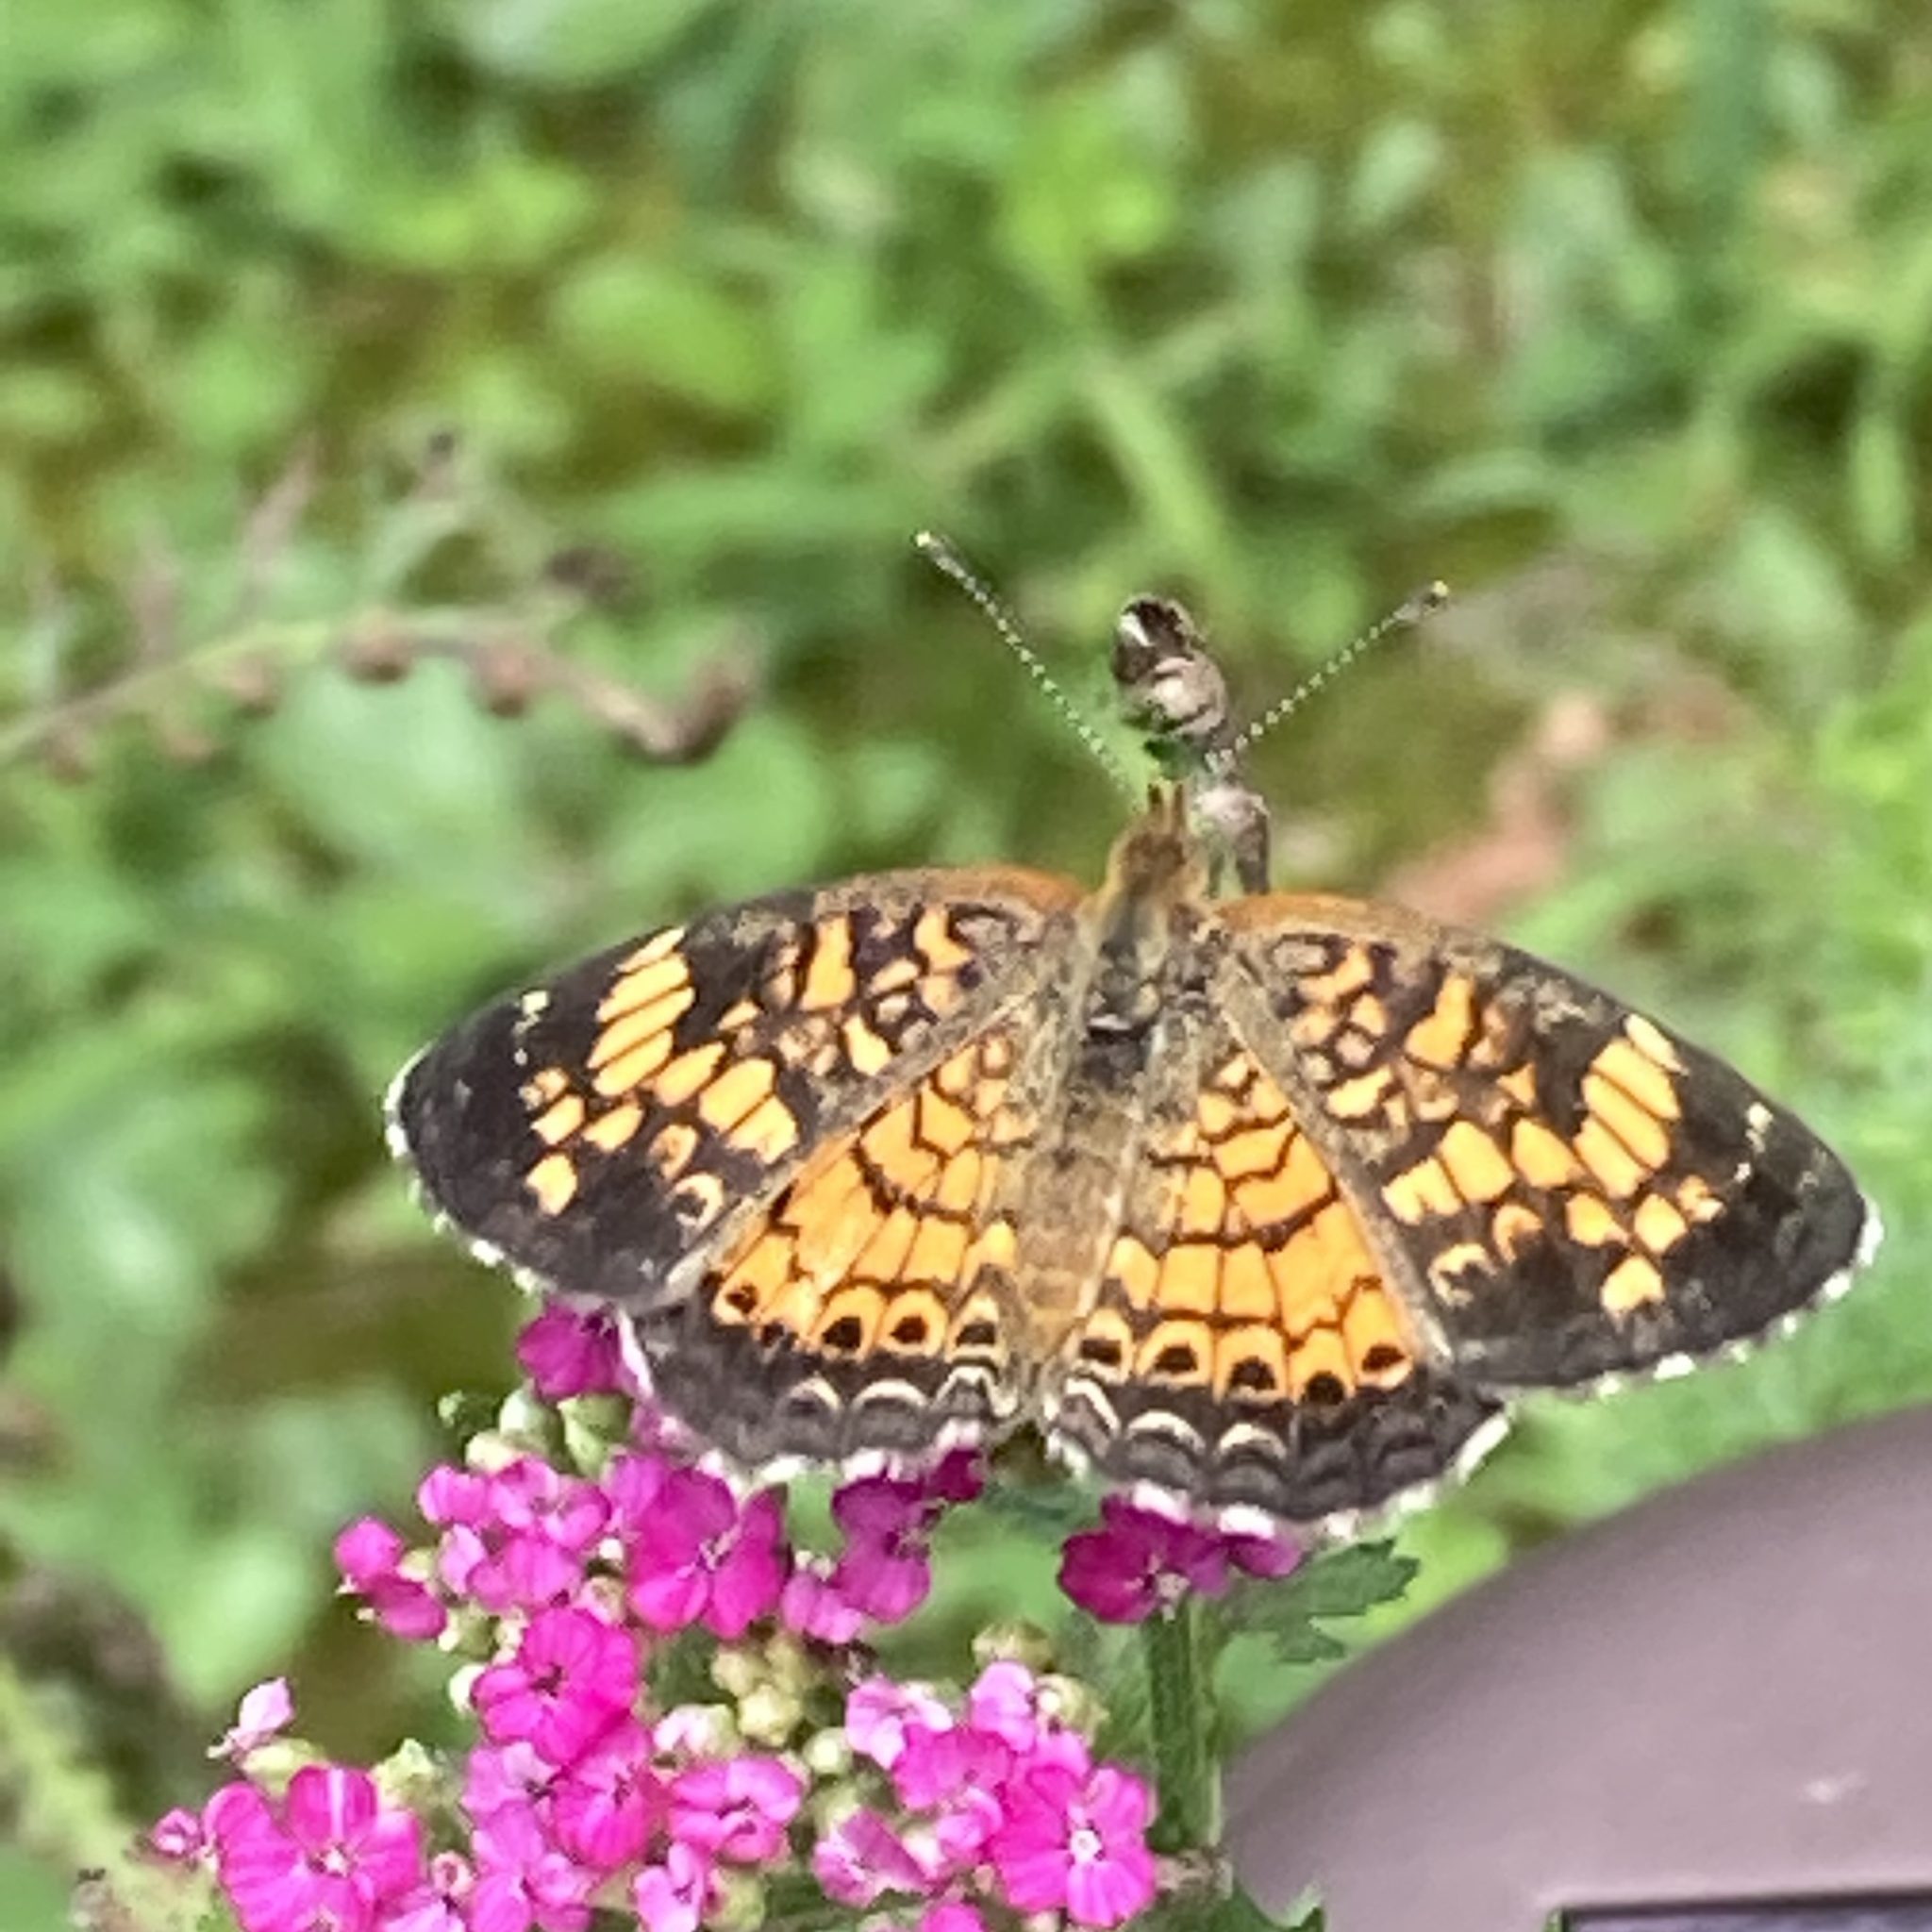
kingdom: Animalia
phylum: Arthropoda
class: Insecta
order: Lepidoptera
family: Nymphalidae
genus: Phyciodes
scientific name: Phyciodes tharos
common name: Pearl crescent
